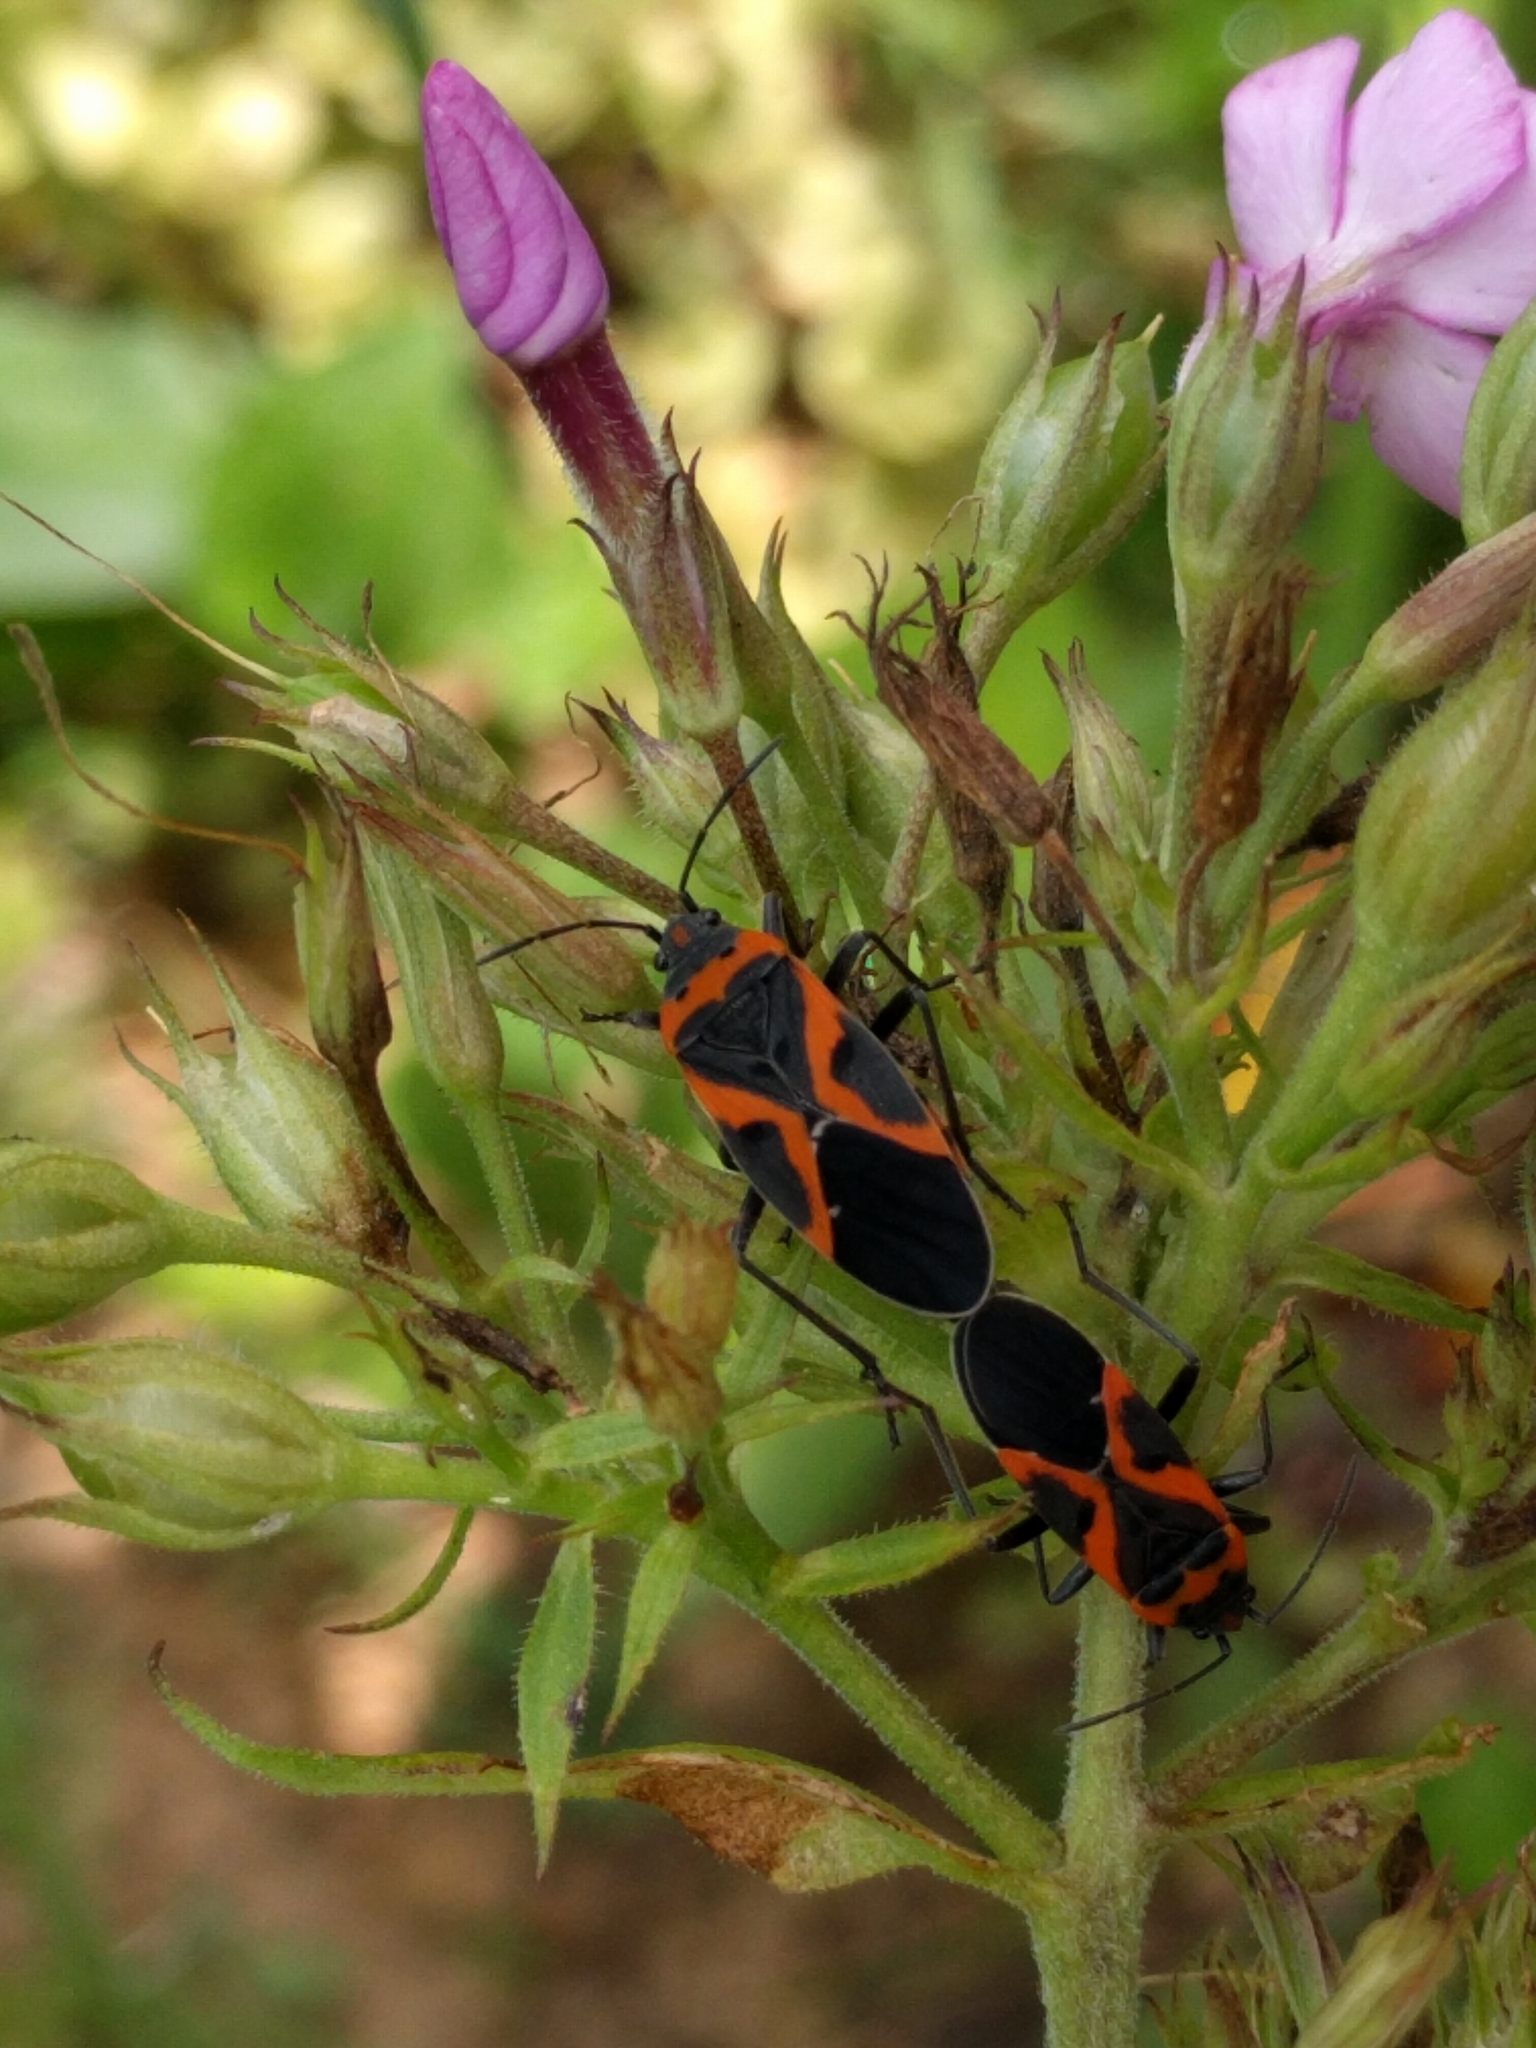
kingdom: Animalia
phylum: Arthropoda
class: Insecta
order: Hemiptera
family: Lygaeidae
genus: Lygaeus
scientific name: Lygaeus kalmii
